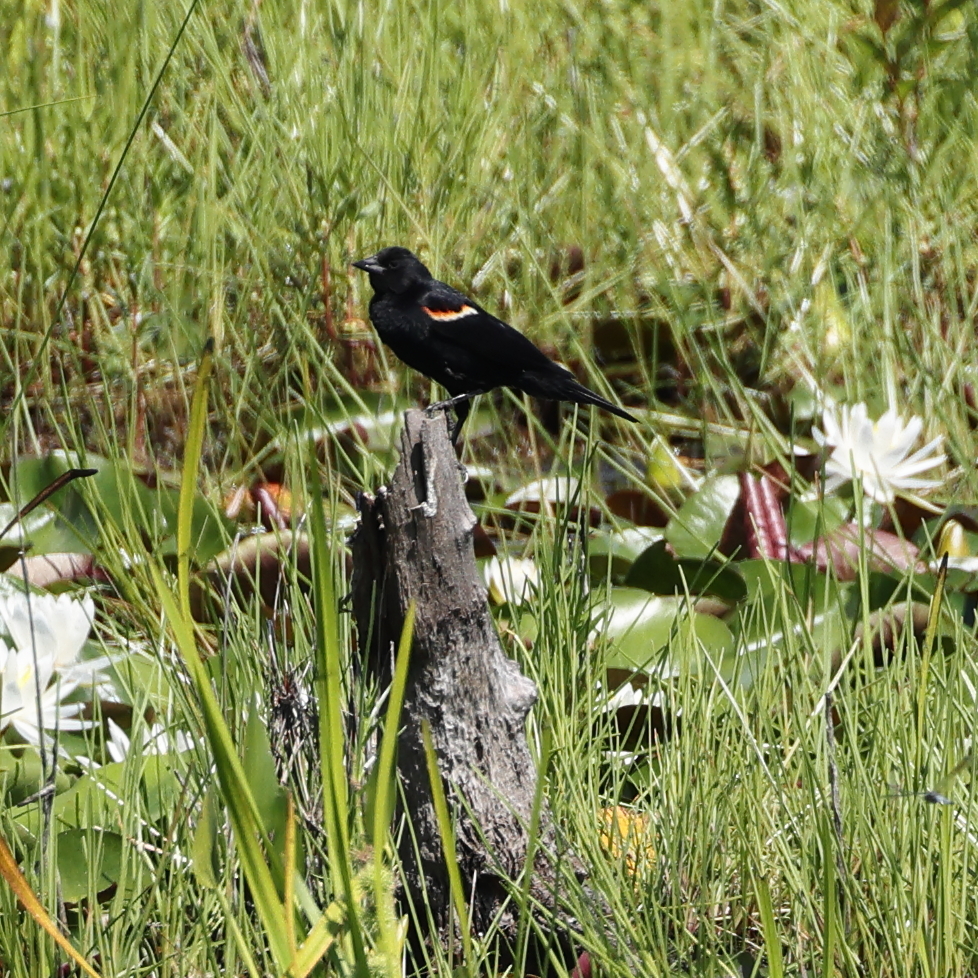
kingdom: Animalia
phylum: Chordata
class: Aves
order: Passeriformes
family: Icteridae
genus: Agelaius
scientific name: Agelaius phoeniceus
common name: Red-winged blackbird
